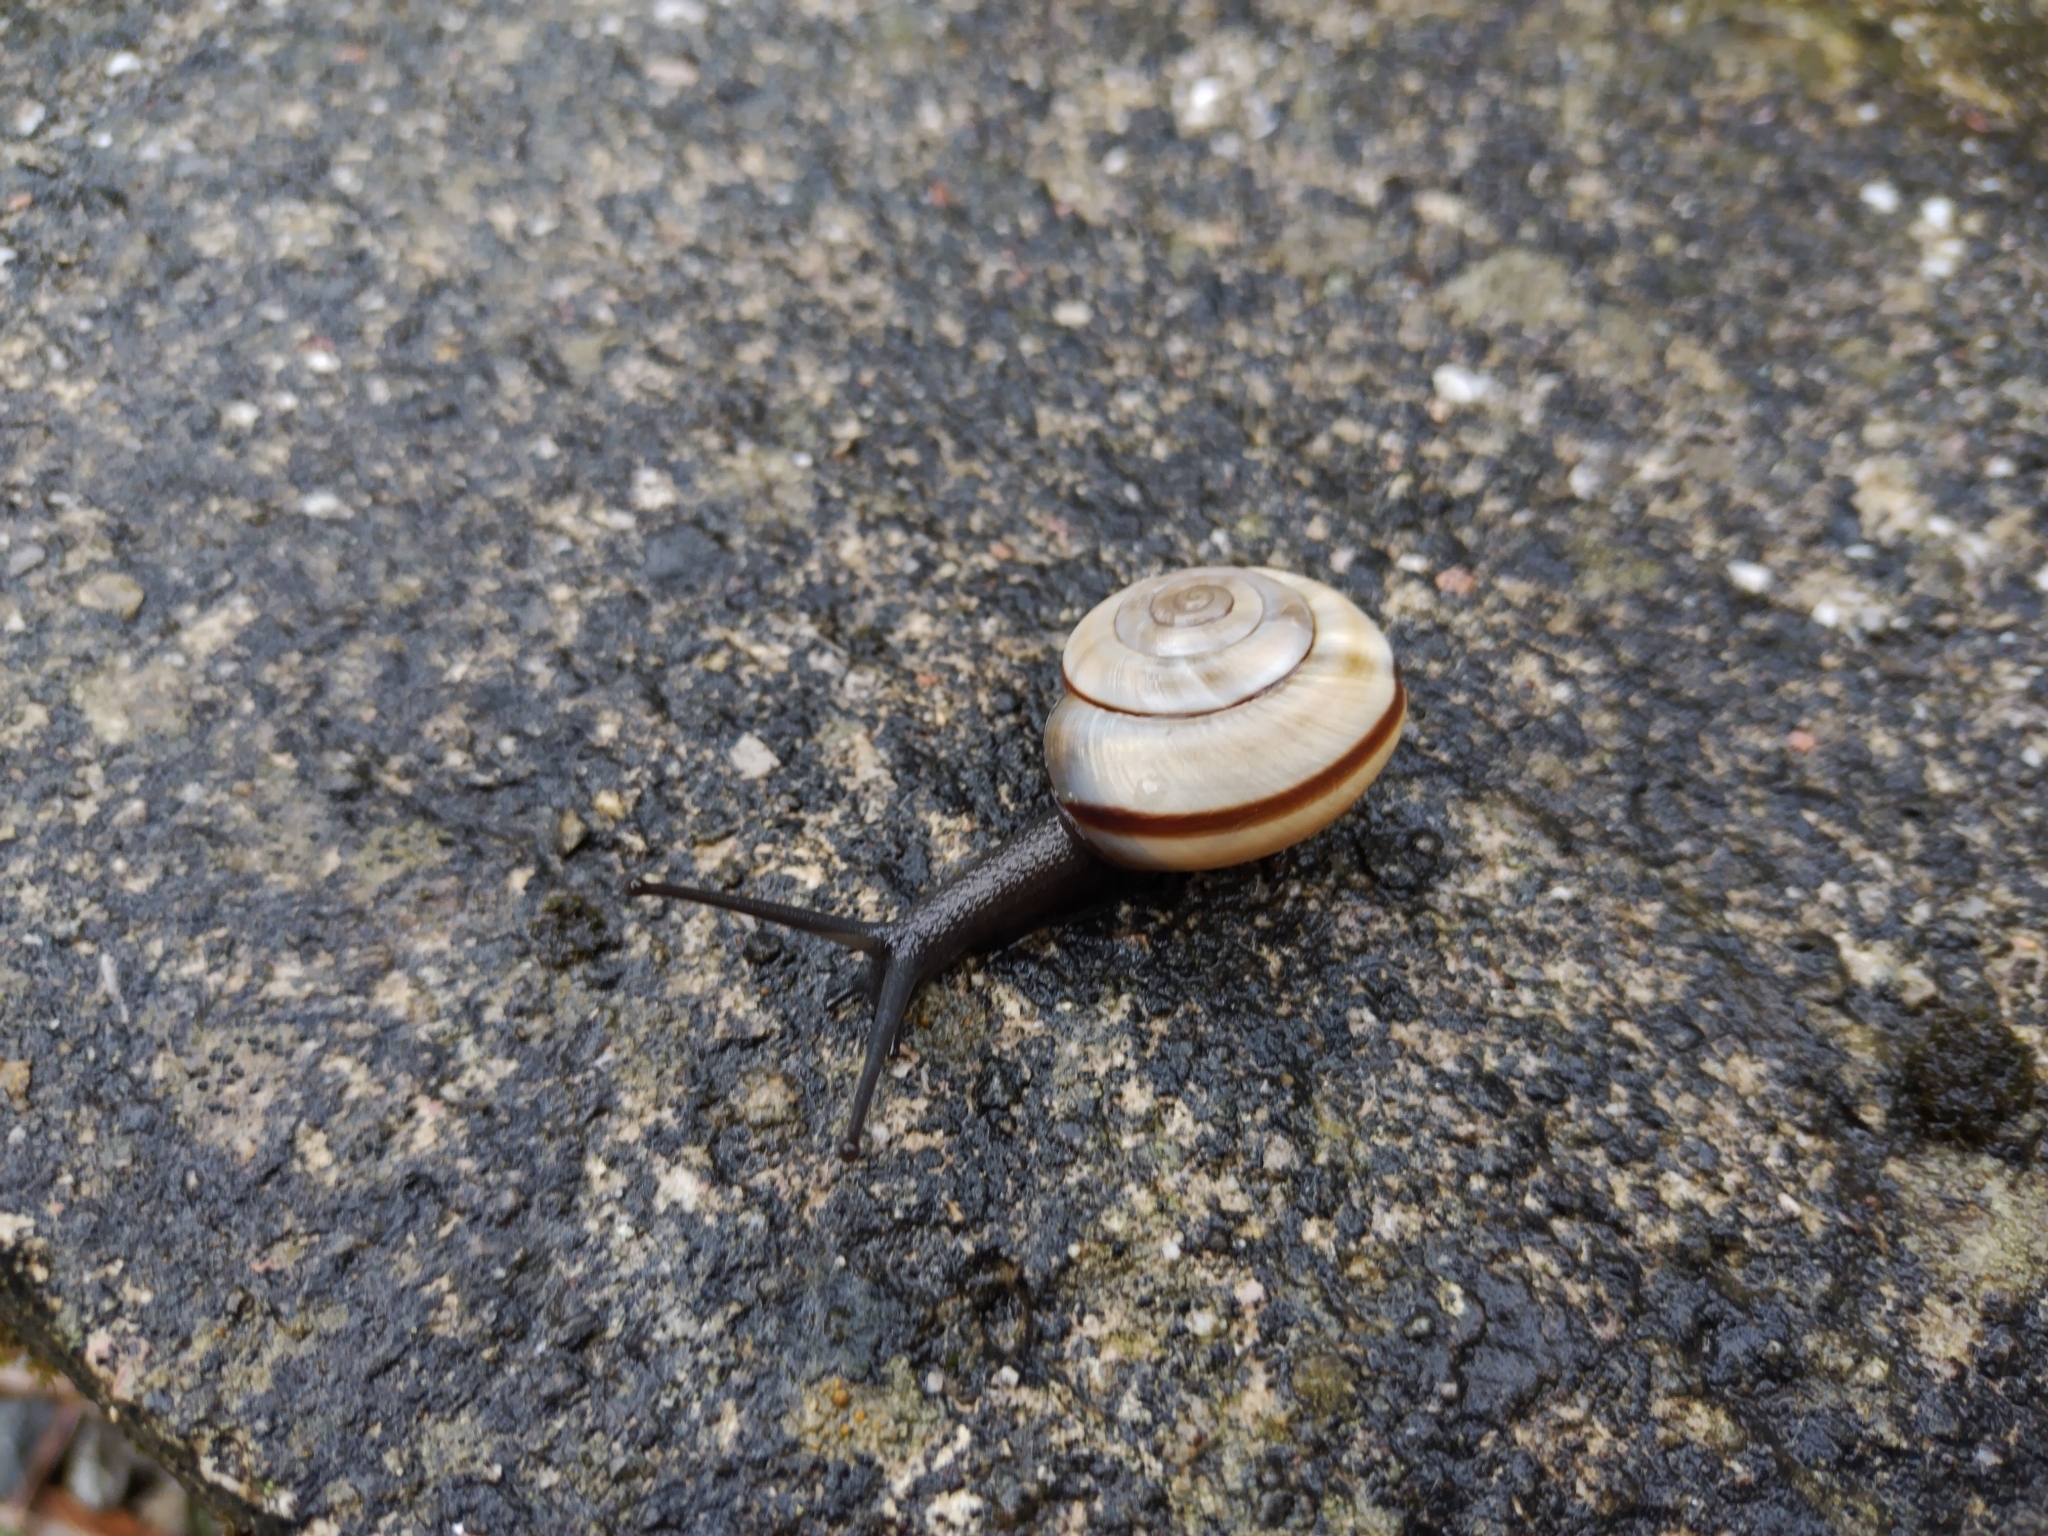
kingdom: Animalia
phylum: Mollusca
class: Gastropoda
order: Stylommatophora
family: Helicidae
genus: Chilostoma
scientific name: Chilostoma cingulatum
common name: Great rock snail
